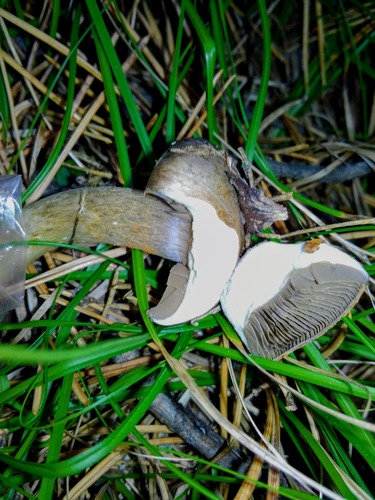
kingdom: Fungi
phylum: Basidiomycota
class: Agaricomycetes
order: Boletales
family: Gomphidiaceae
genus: Chroogomphus
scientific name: Chroogomphus rutilus
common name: Copper spike
